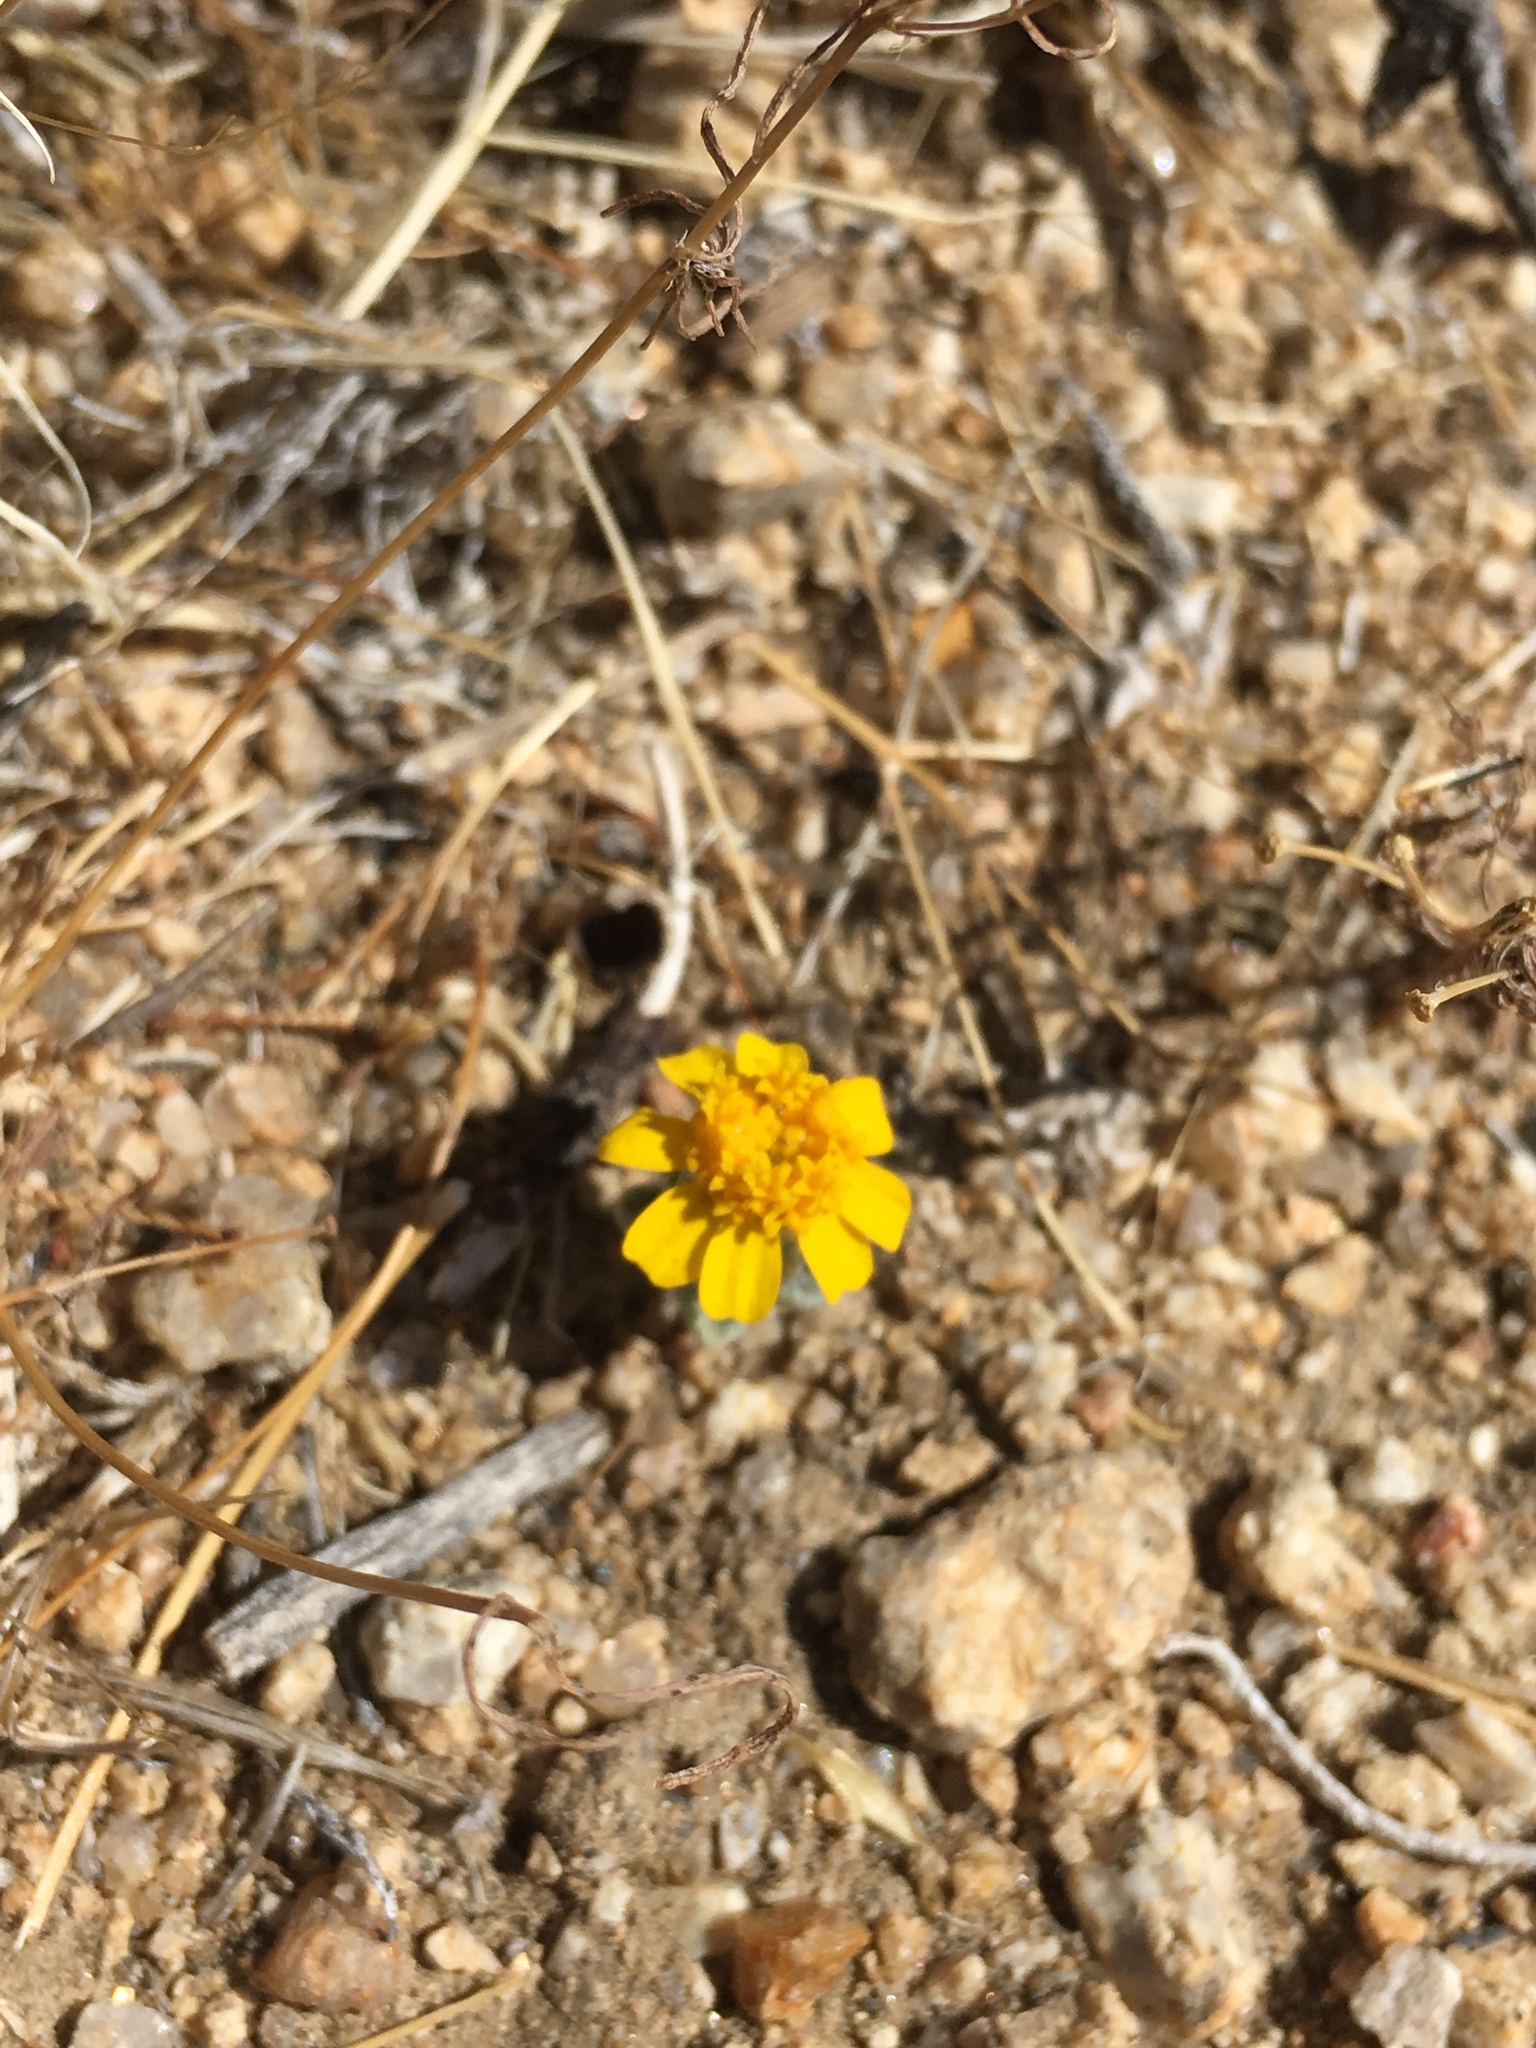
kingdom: Plantae
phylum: Tracheophyta
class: Magnoliopsida
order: Asterales
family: Asteraceae
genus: Eriophyllum
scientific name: Eriophyllum wallacei
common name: Wallace's woolly daisy
